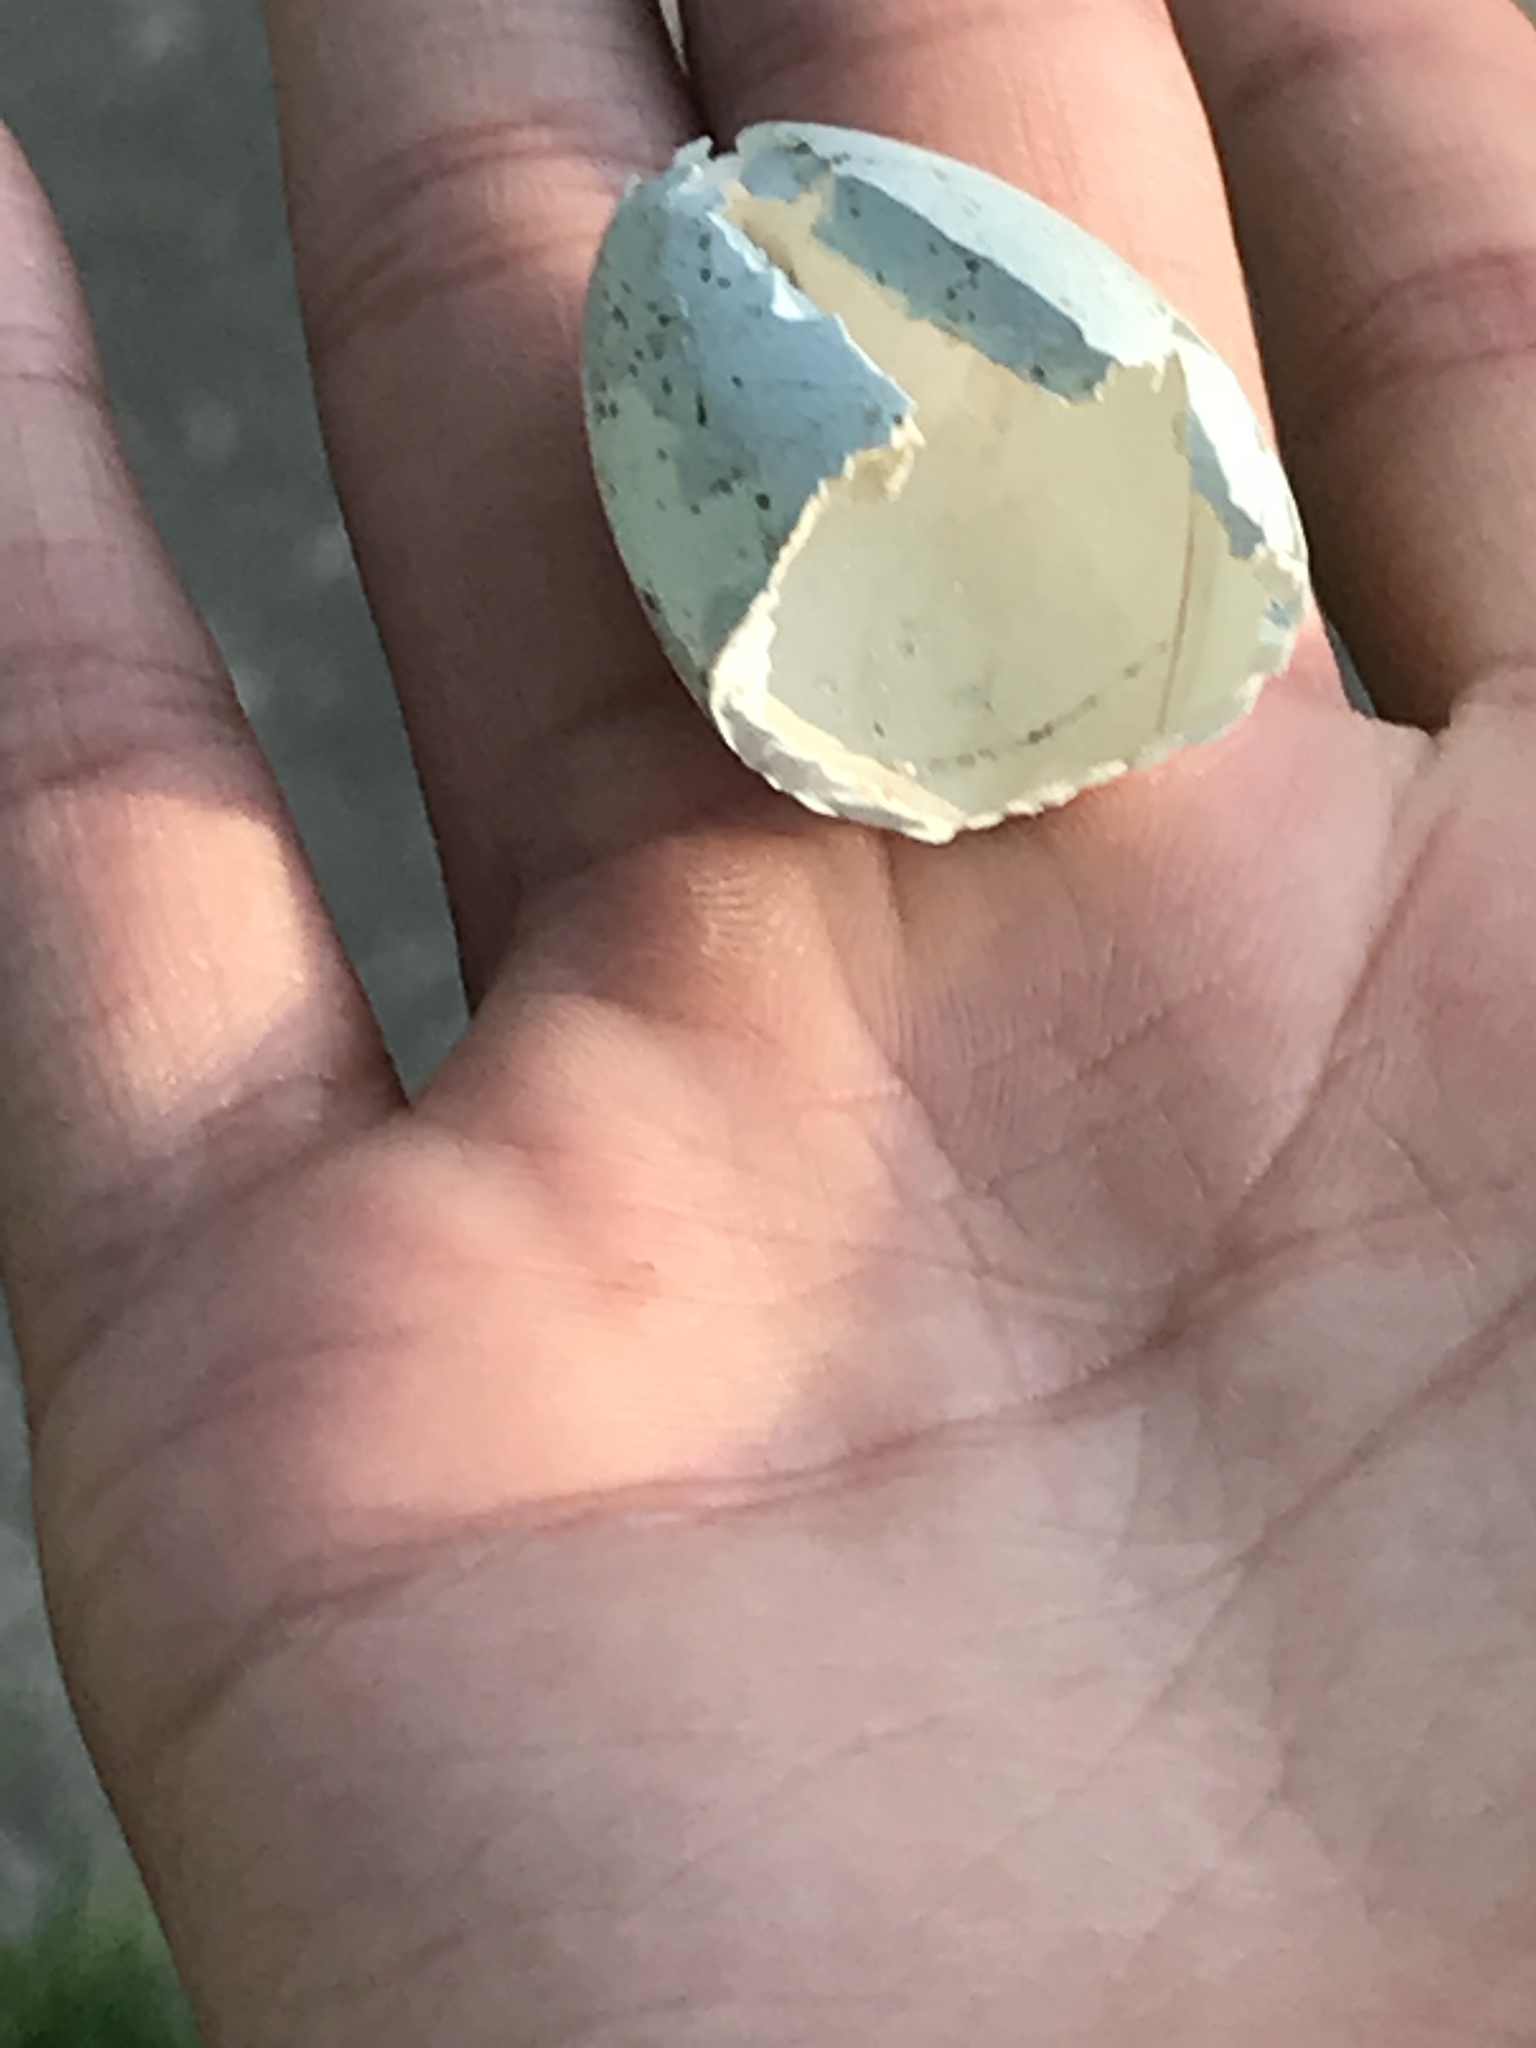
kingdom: Animalia
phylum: Chordata
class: Aves
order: Passeriformes
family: Turdidae
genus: Turdus
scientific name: Turdus migratorius
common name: American robin
